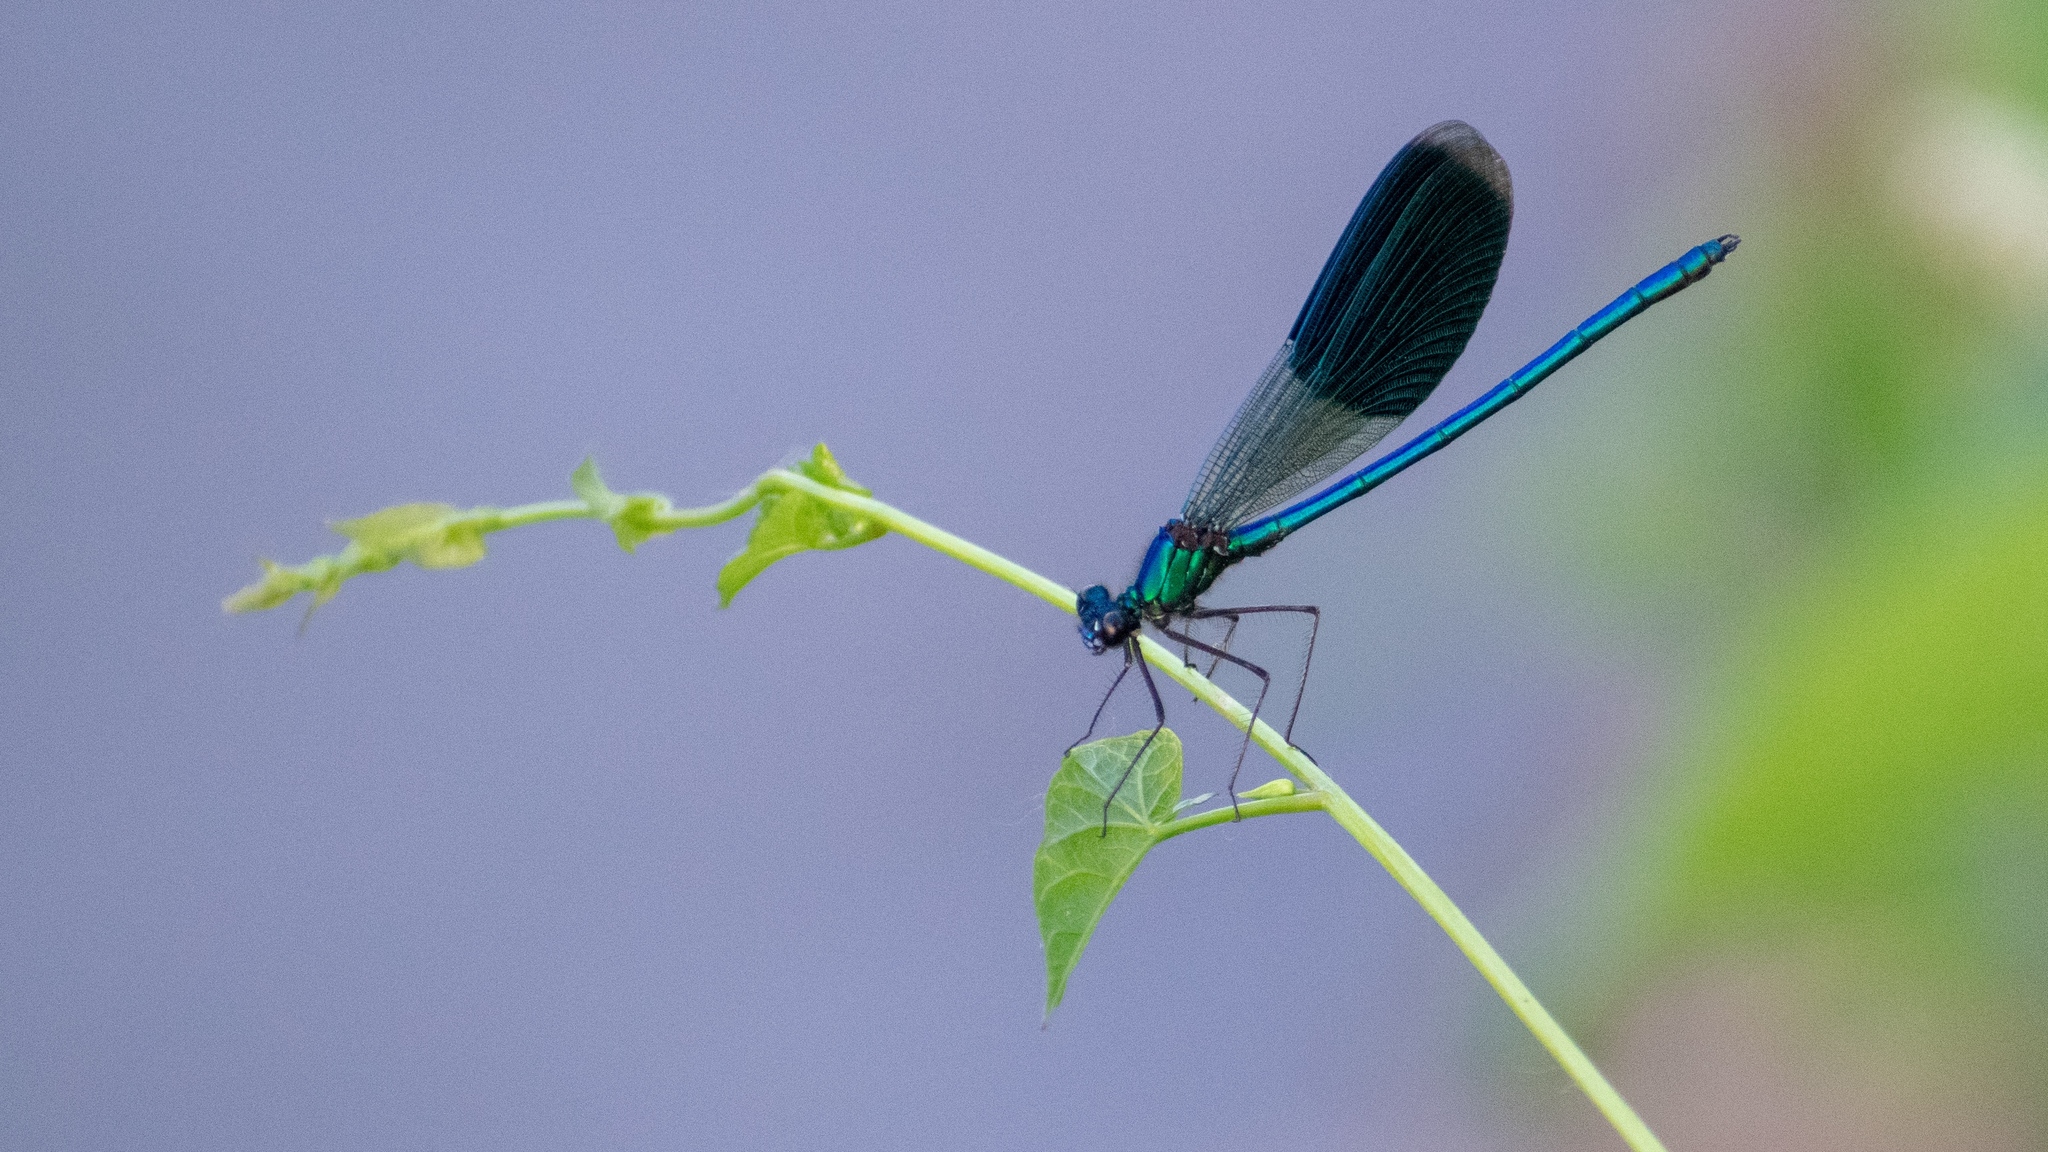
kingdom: Animalia
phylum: Arthropoda
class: Insecta
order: Odonata
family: Calopterygidae
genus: Calopteryx
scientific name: Calopteryx splendens
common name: Banded demoiselle
